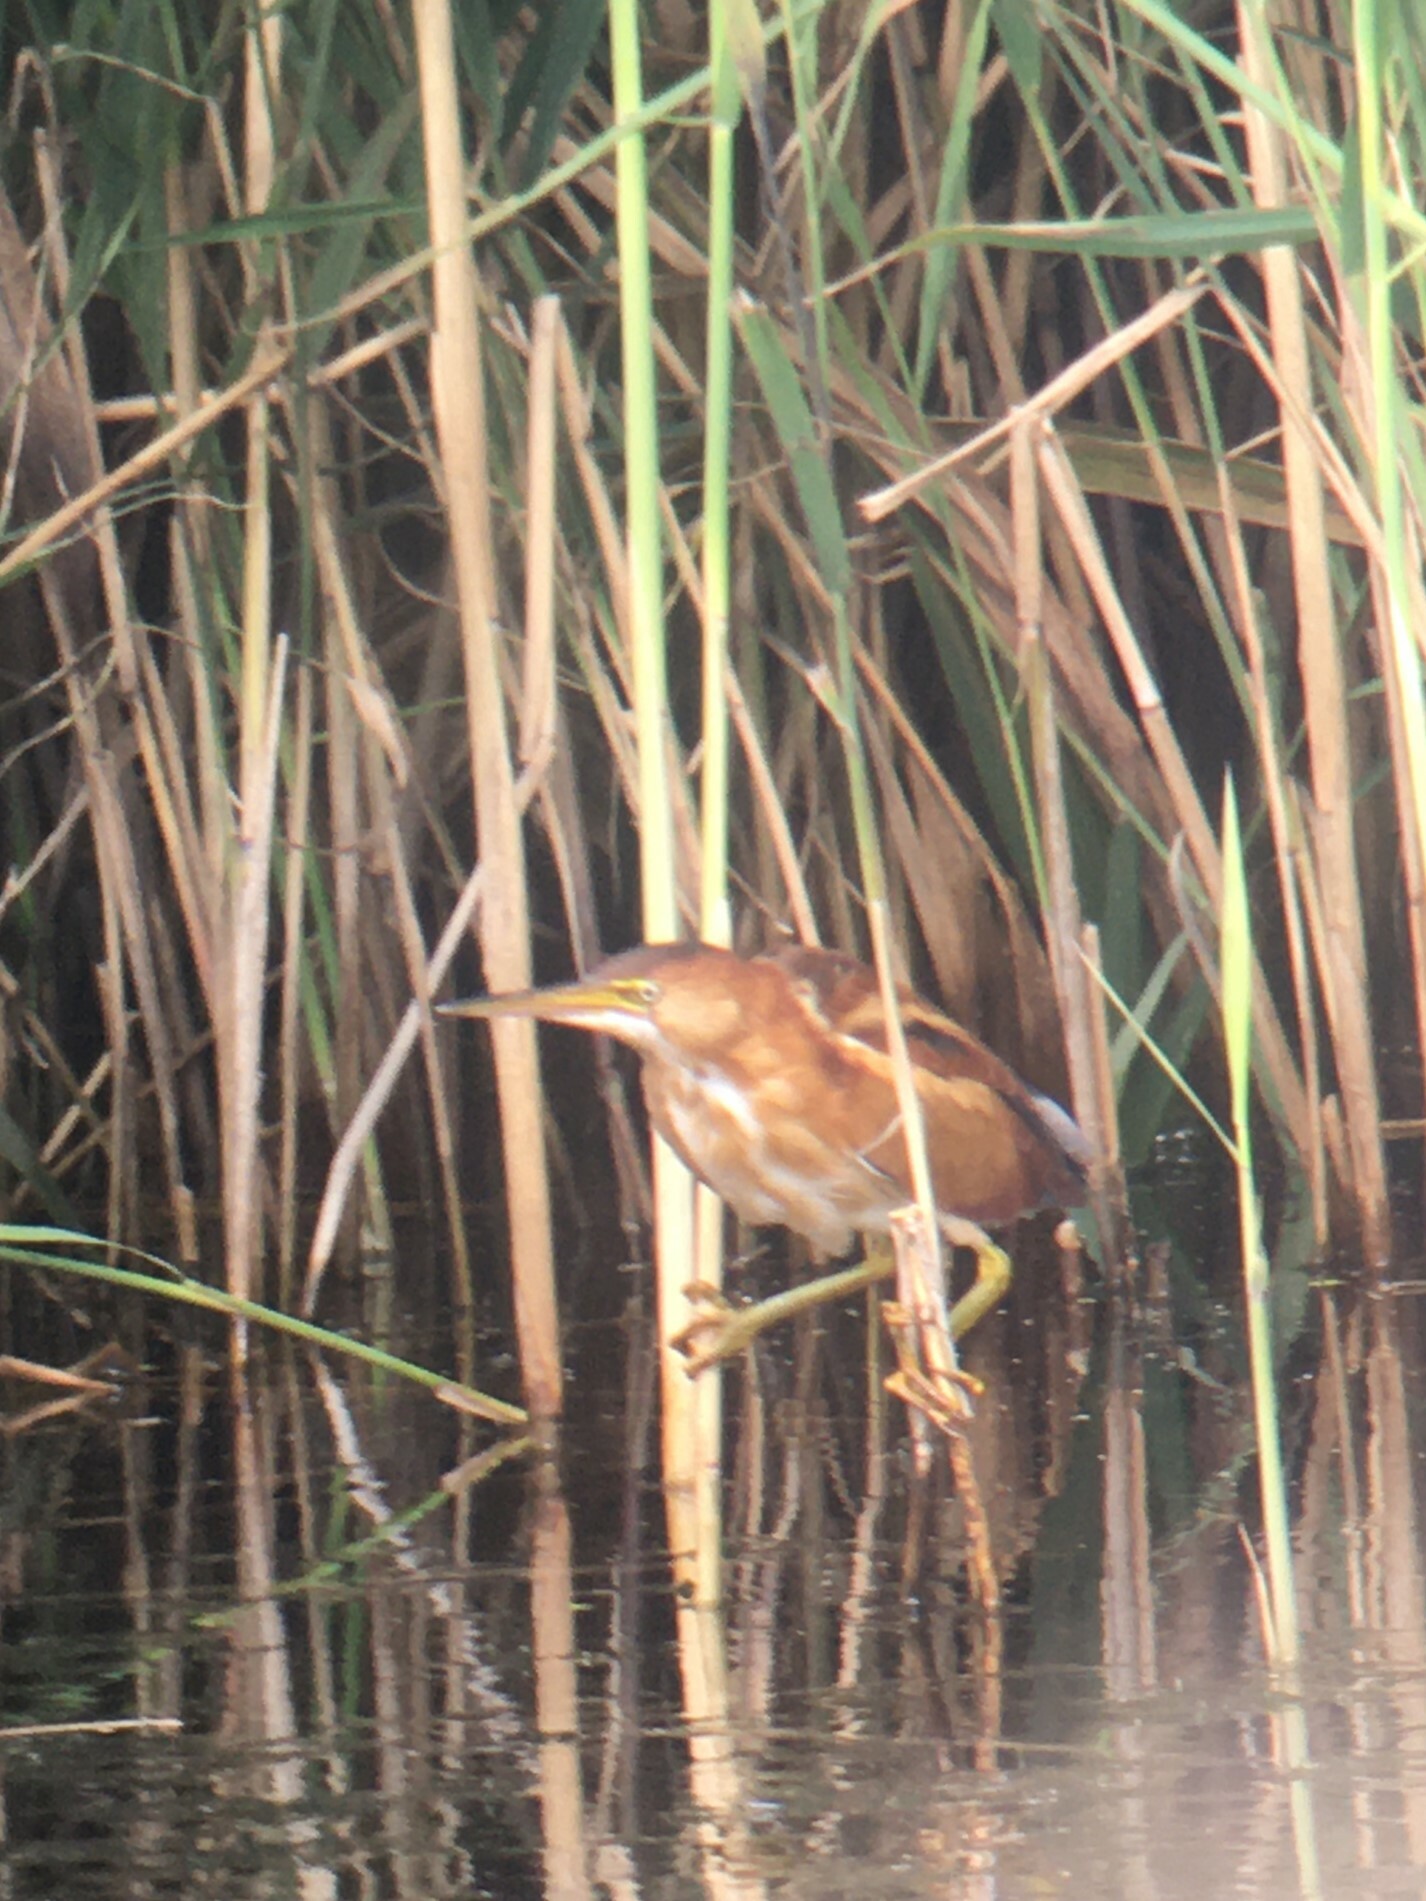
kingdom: Animalia
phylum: Chordata
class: Aves
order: Pelecaniformes
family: Ardeidae
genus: Ixobrychus
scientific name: Ixobrychus exilis
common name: Least bittern
